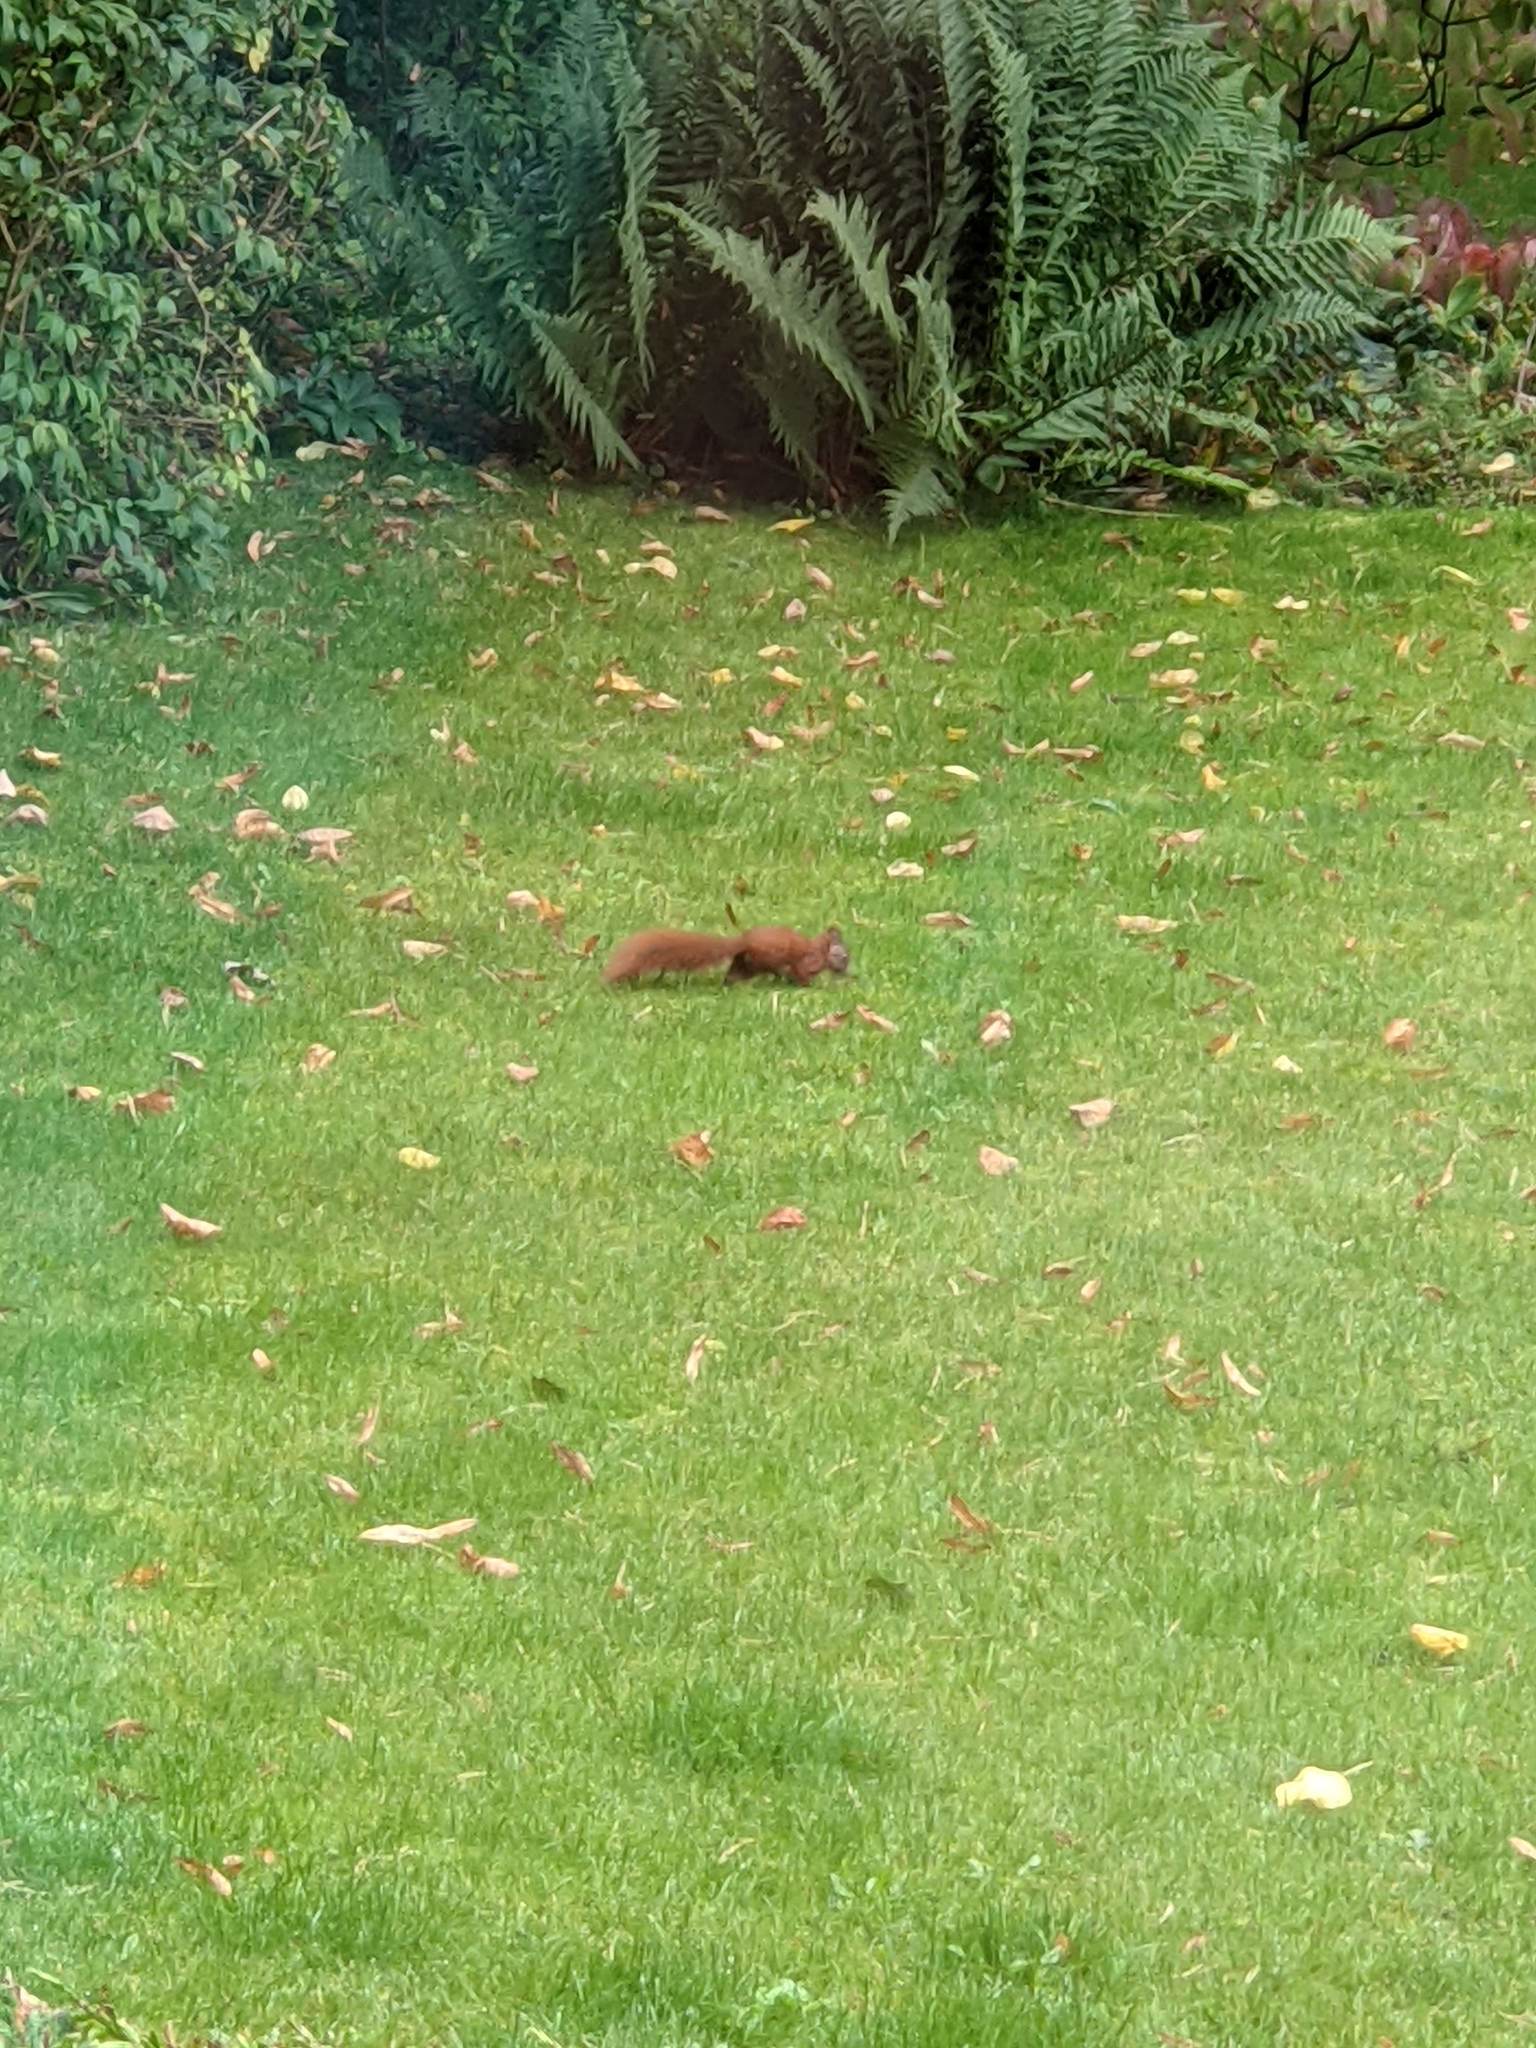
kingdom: Animalia
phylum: Chordata
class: Mammalia
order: Rodentia
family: Sciuridae
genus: Sciurus
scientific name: Sciurus vulgaris
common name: Eurasian red squirrel
